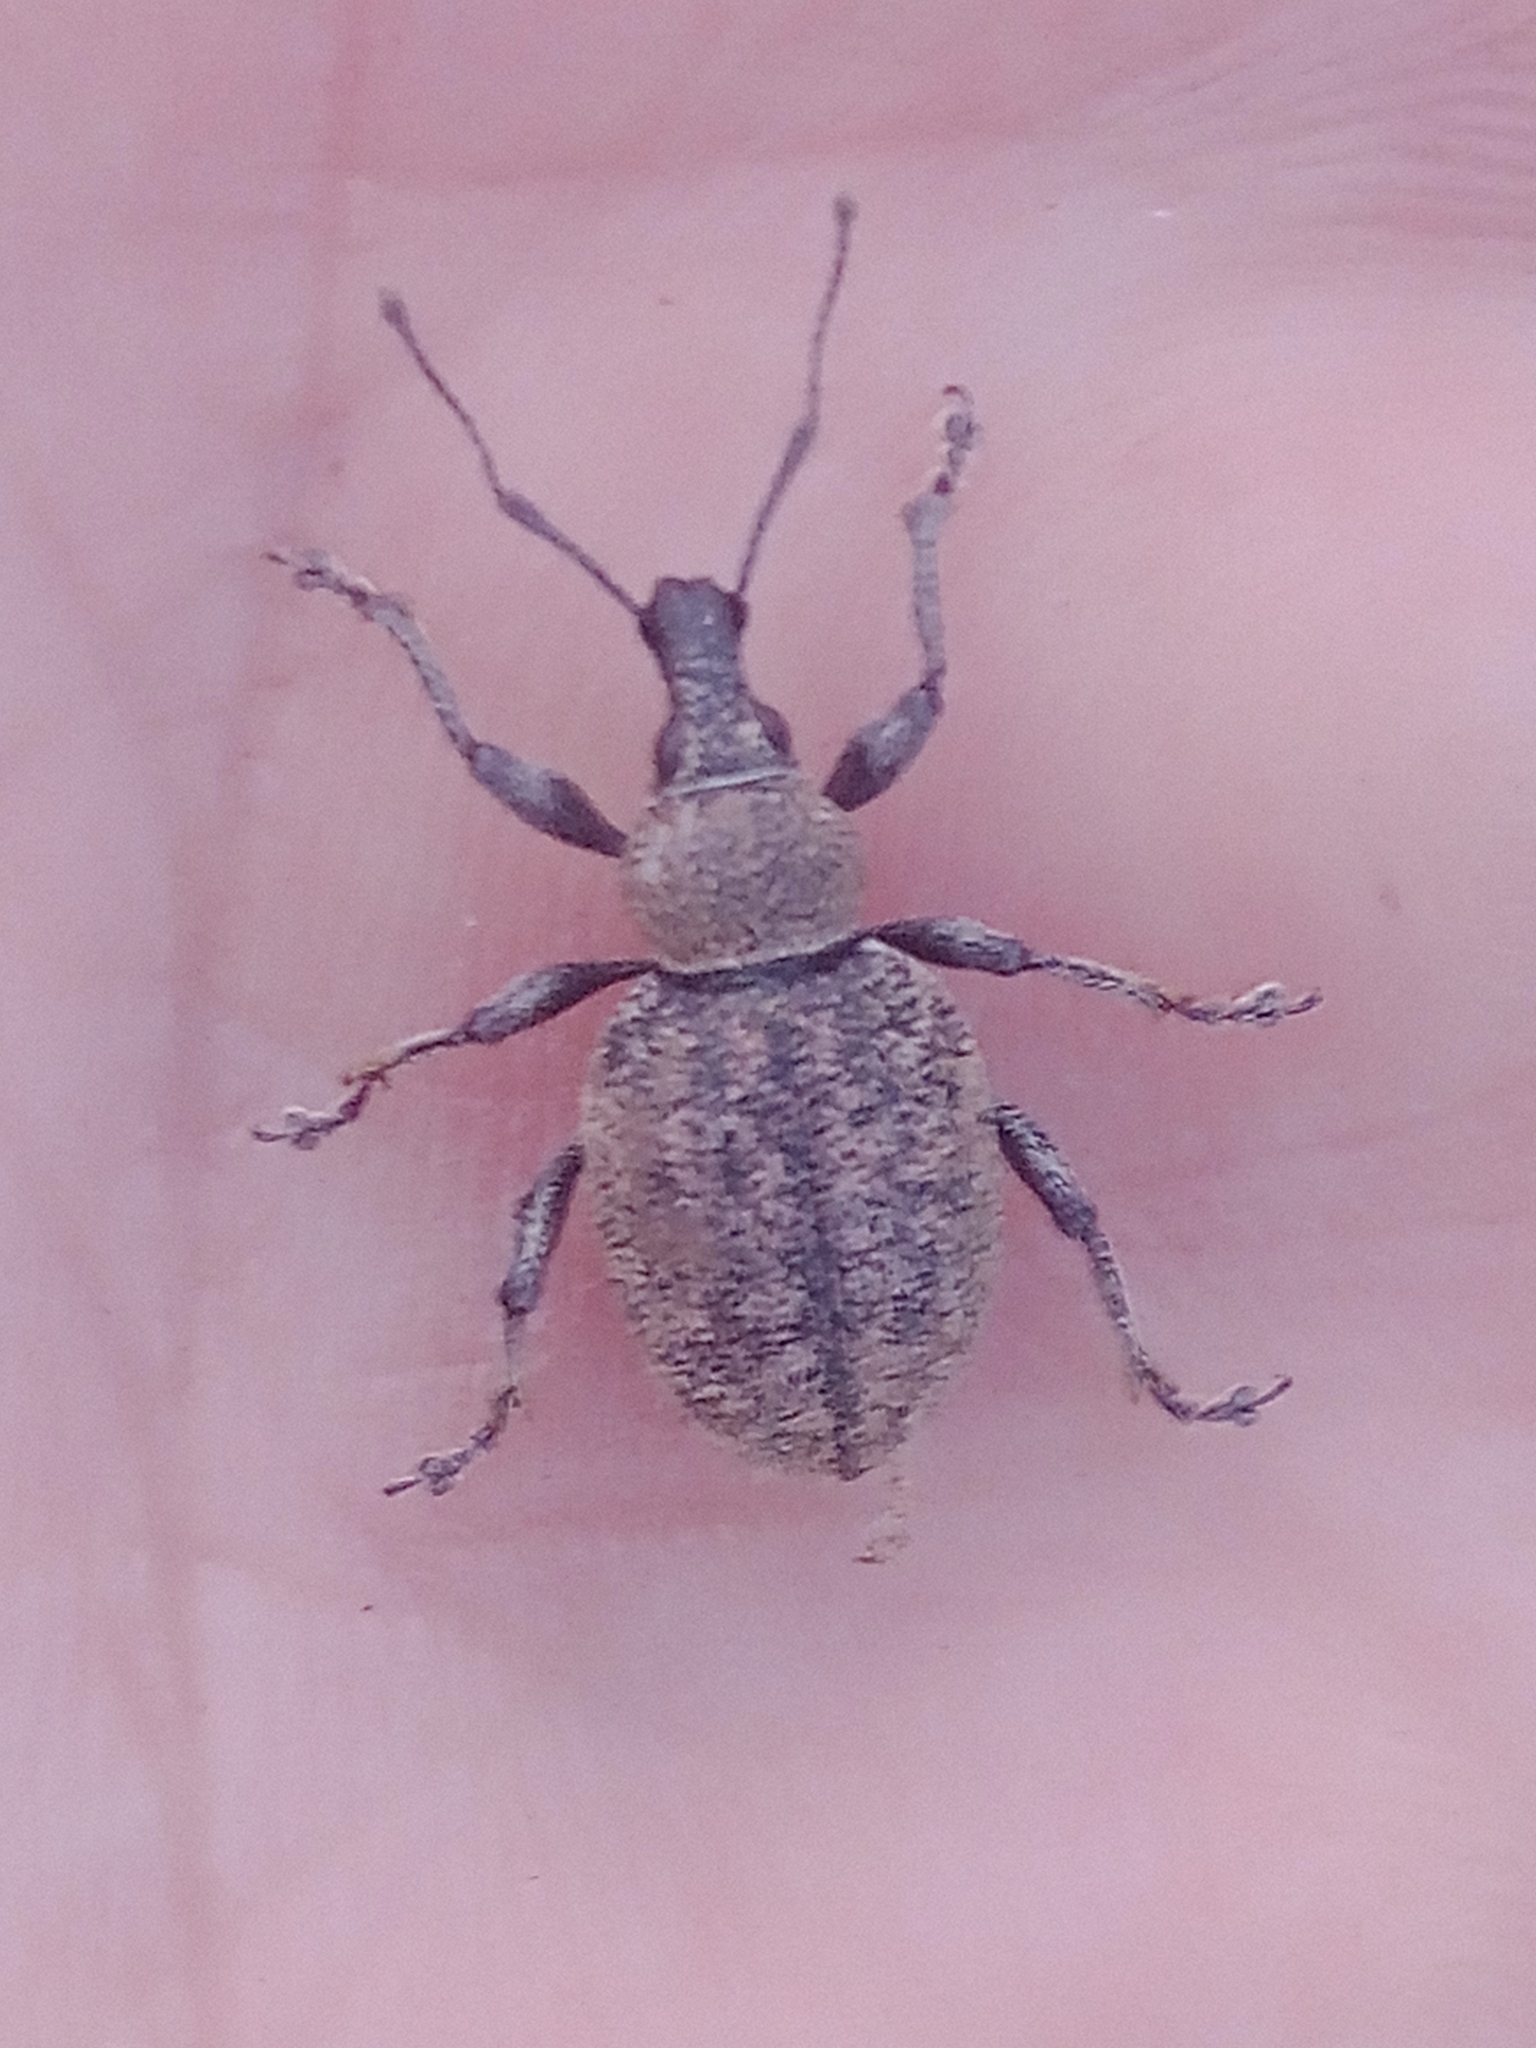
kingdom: Animalia
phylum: Arthropoda
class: Insecta
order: Coleoptera
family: Curculionidae
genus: Otiorhynchus
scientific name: Otiorhynchus ligustici
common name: Weevil
